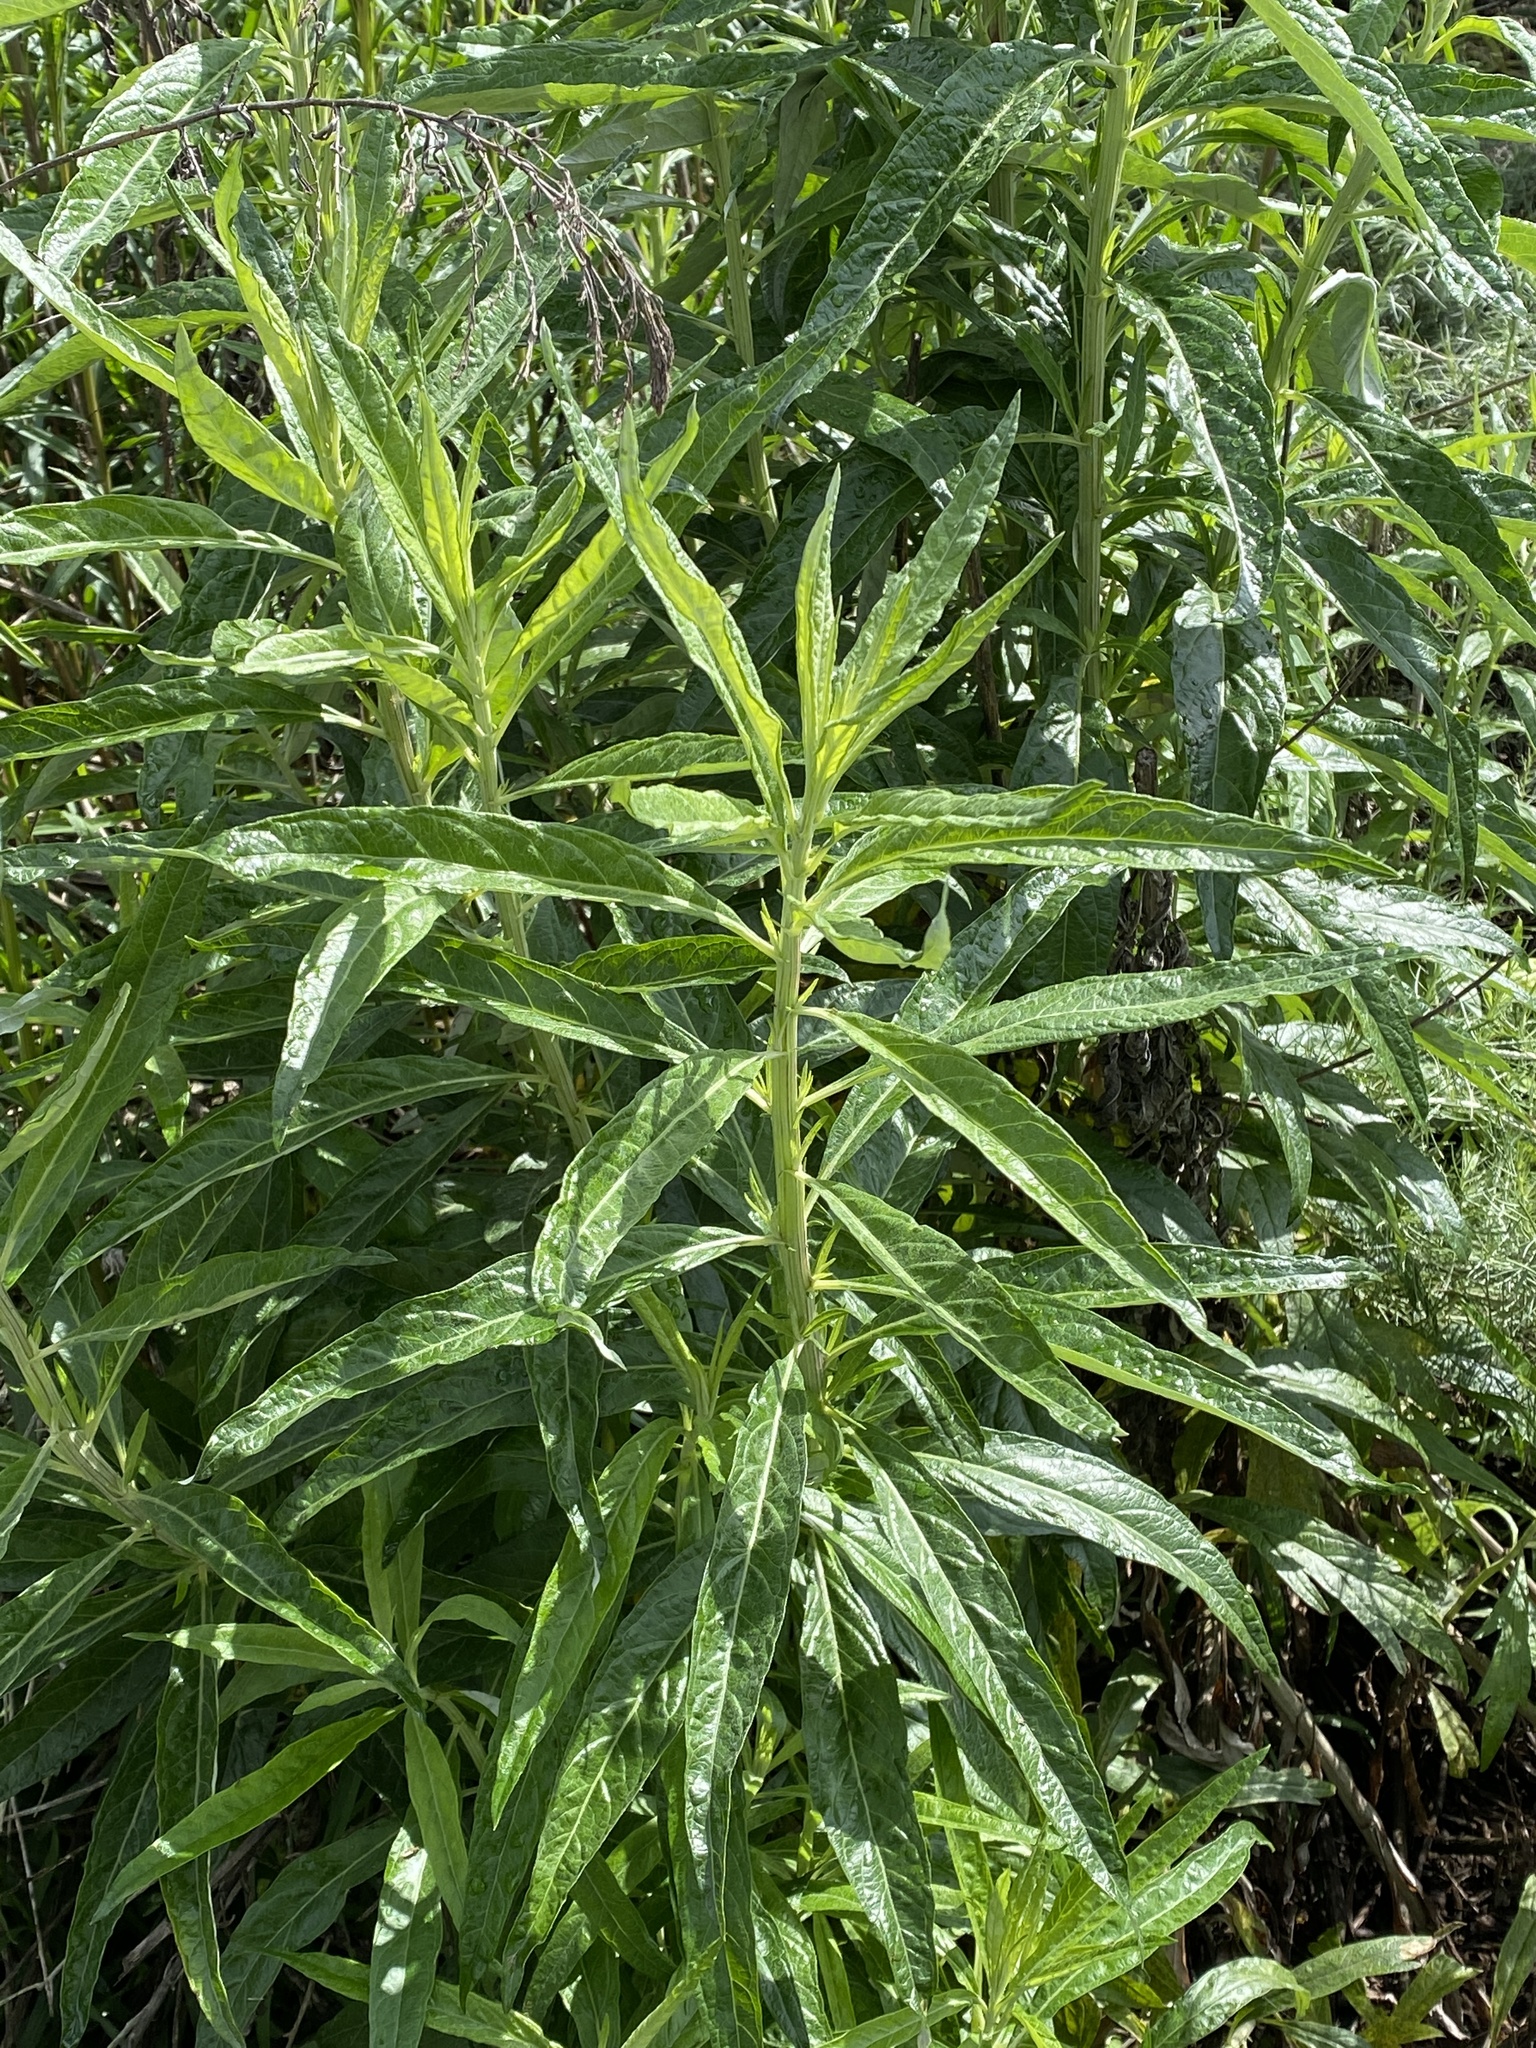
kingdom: Plantae
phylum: Tracheophyta
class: Magnoliopsida
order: Asterales
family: Asteraceae
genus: Artemisia
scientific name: Artemisia douglasiana
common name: Northwest mugwort
